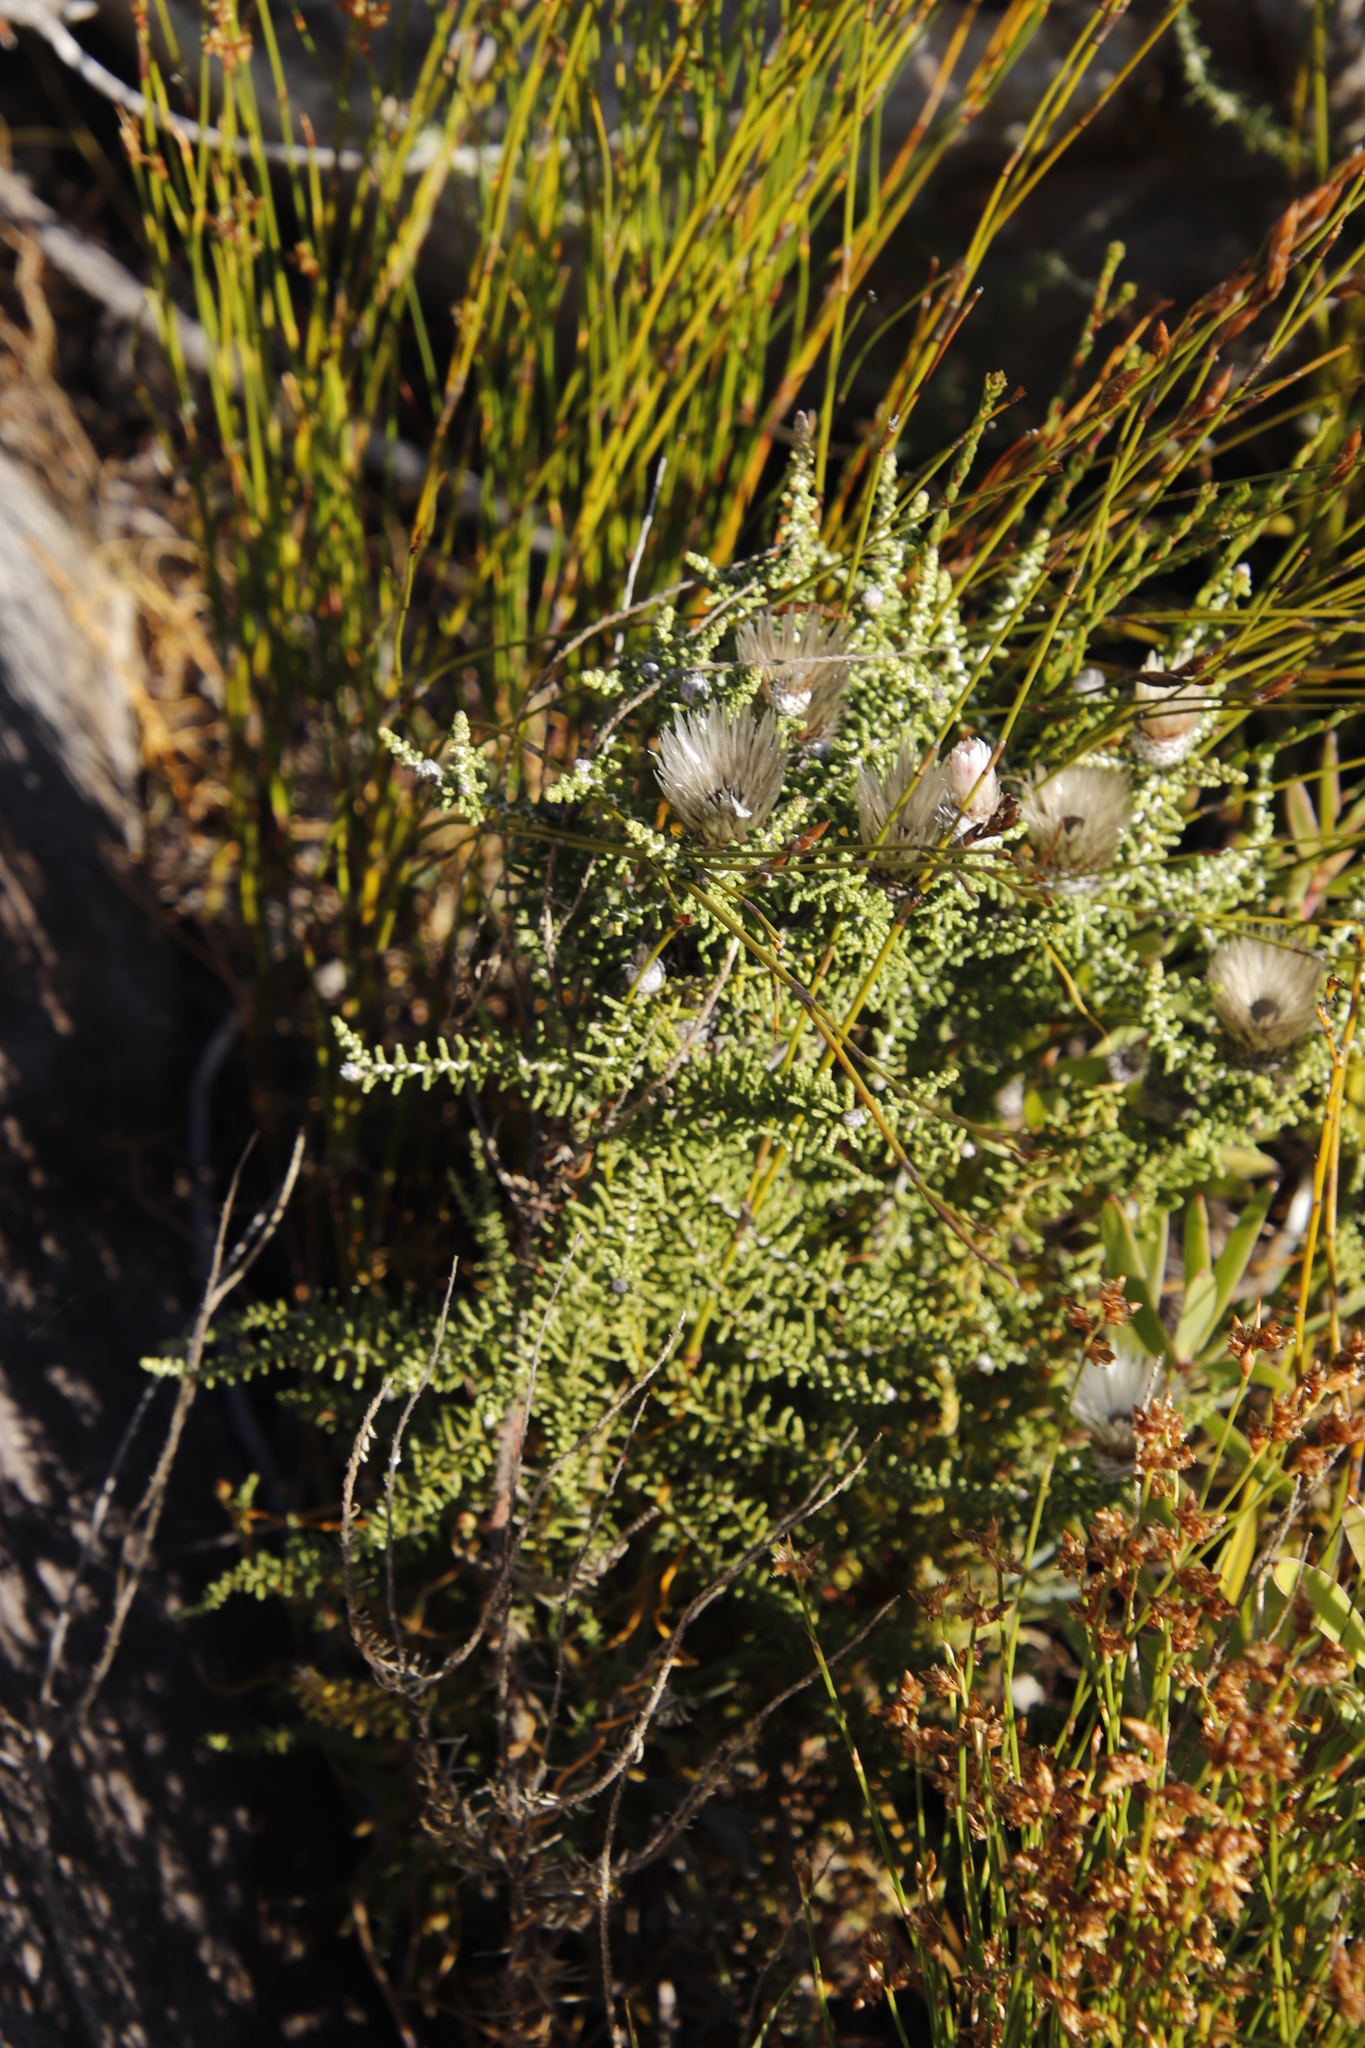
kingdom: Plantae
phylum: Tracheophyta
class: Magnoliopsida
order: Asterales
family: Asteraceae
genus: Phaenocoma
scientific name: Phaenocoma prolifera
